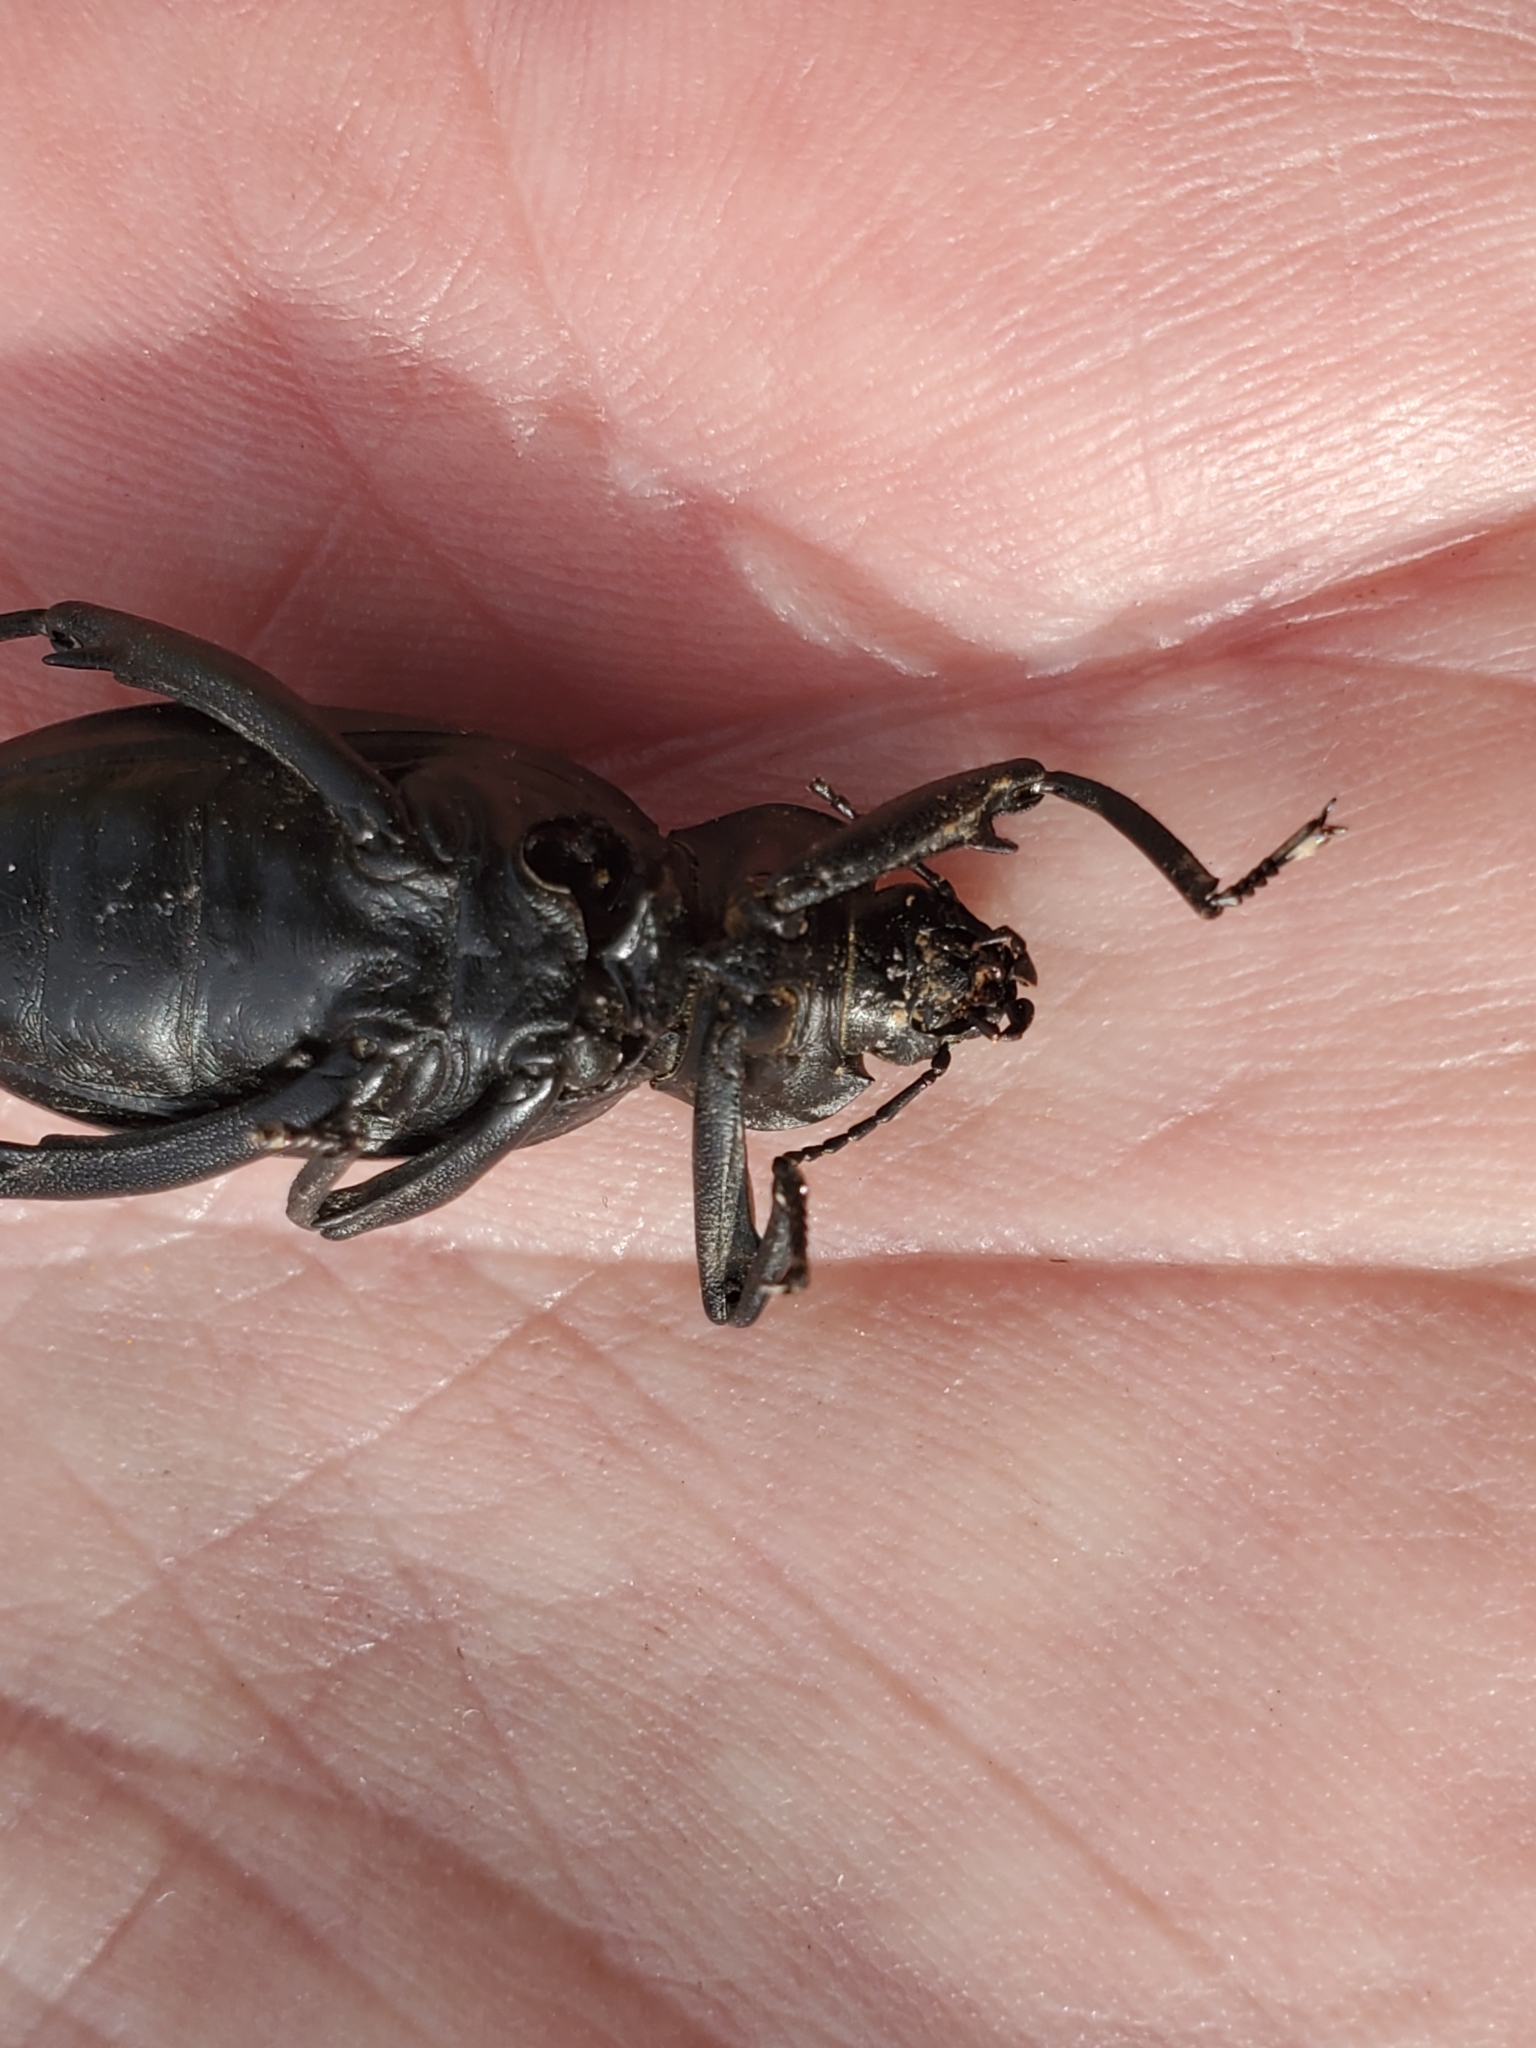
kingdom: Animalia
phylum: Arthropoda
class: Insecta
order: Coleoptera
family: Tenebrionidae
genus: Eleodes
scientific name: Eleodes armata
